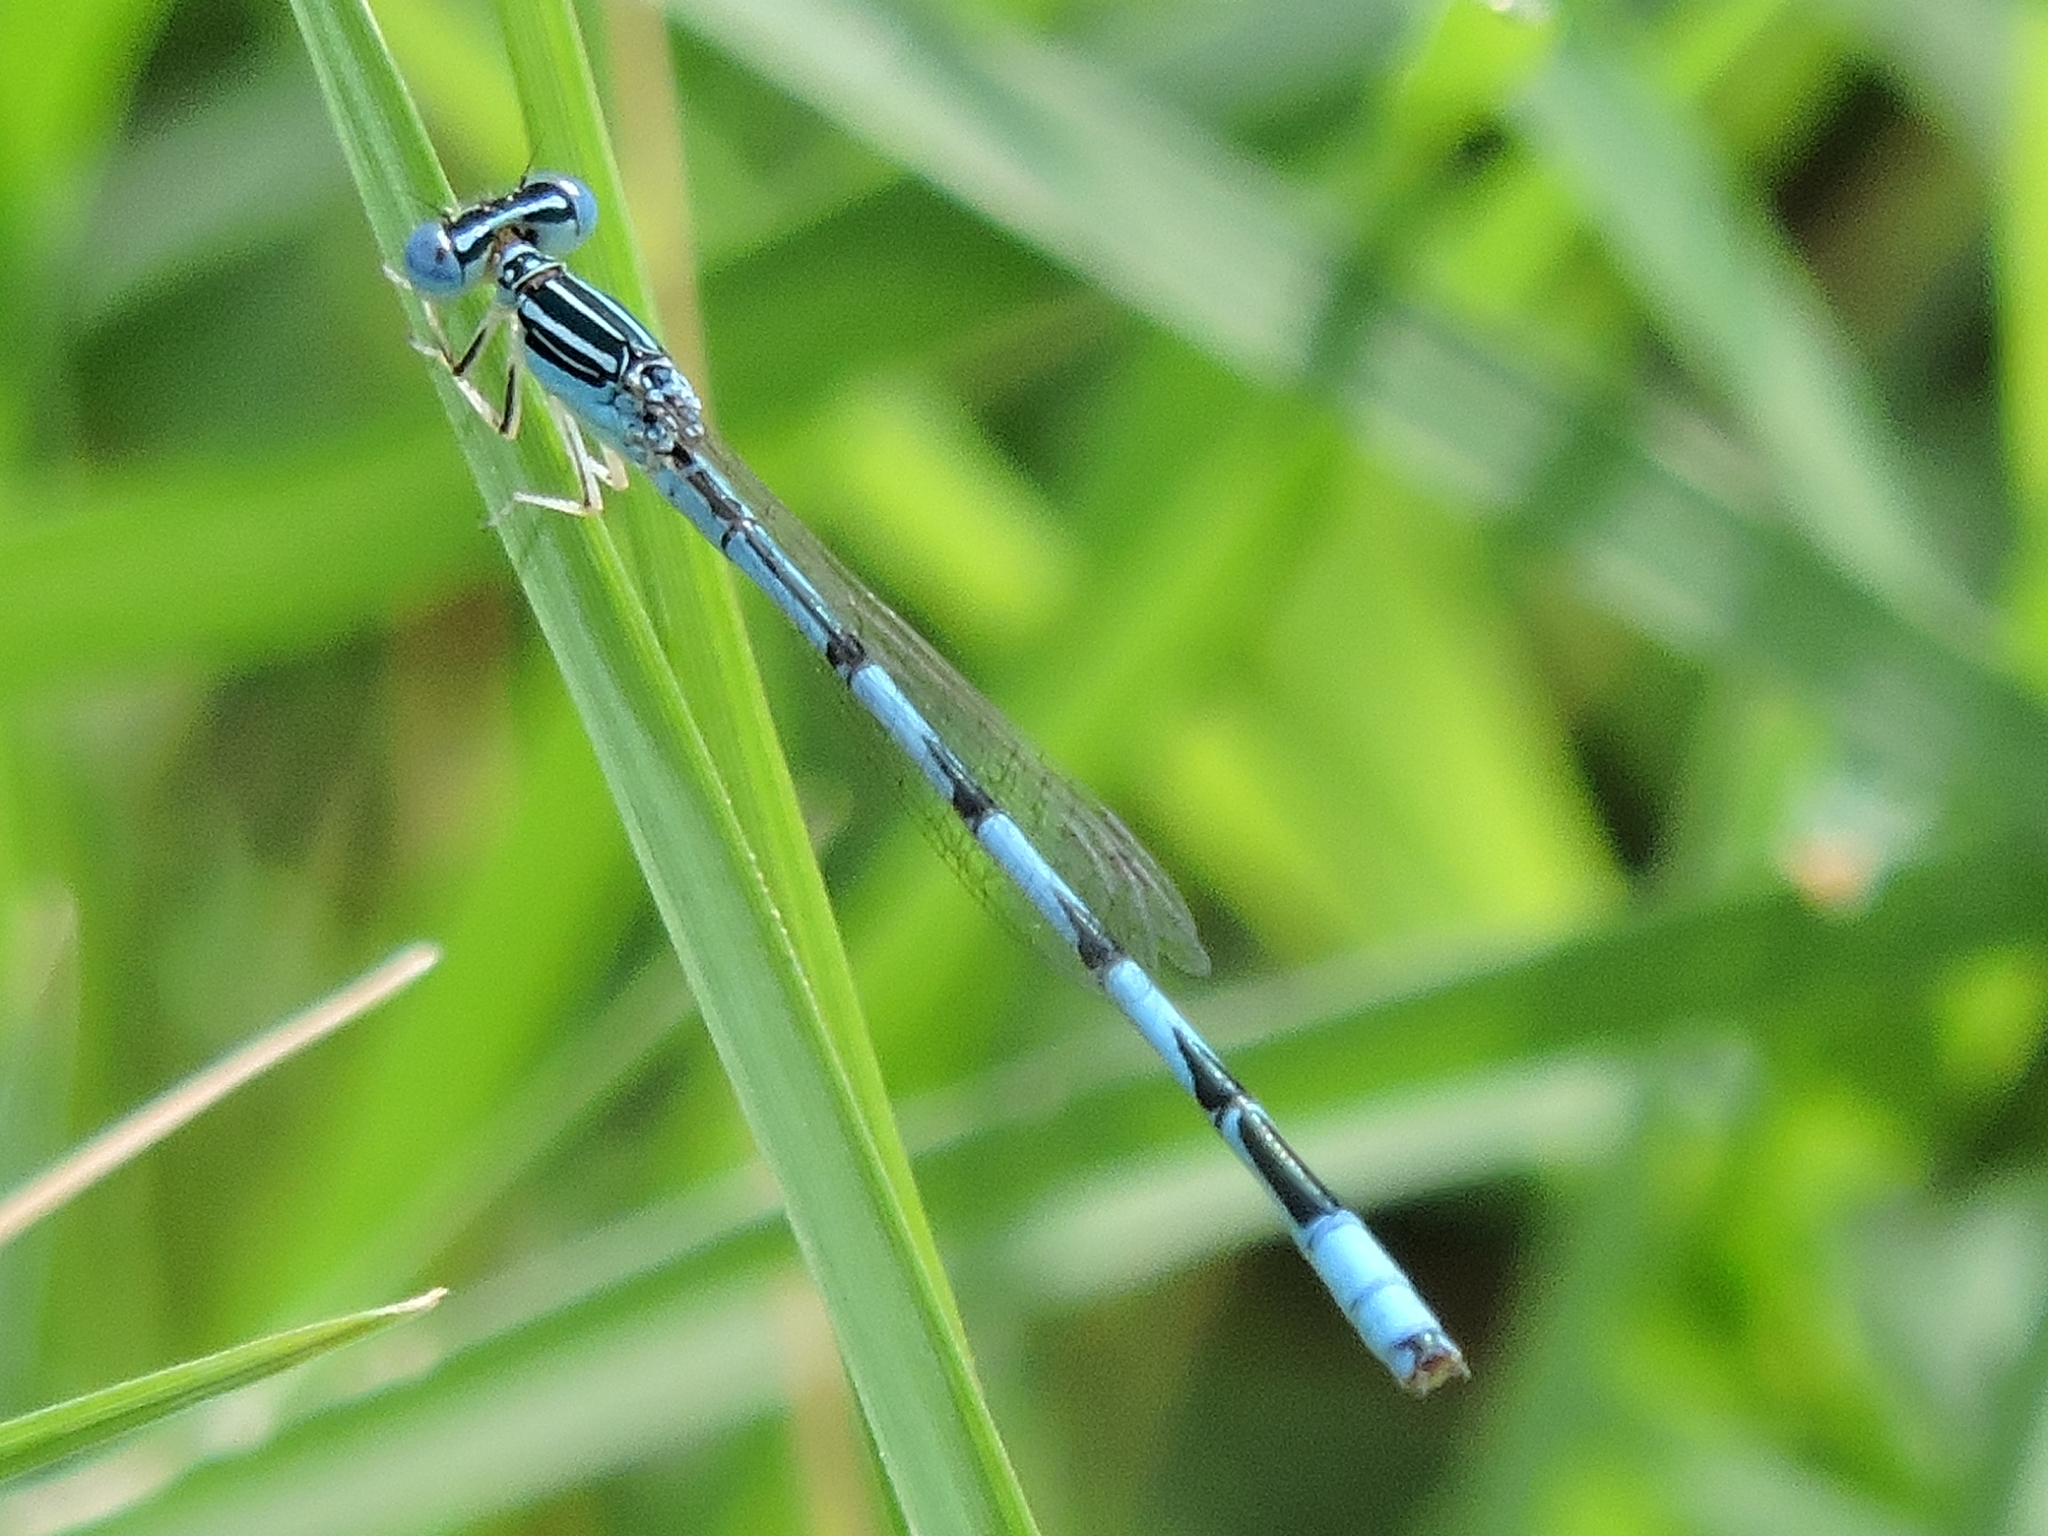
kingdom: Animalia
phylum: Arthropoda
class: Insecta
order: Odonata
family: Coenagrionidae
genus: Enallagma
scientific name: Enallagma basidens
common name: Double-striped bluet
